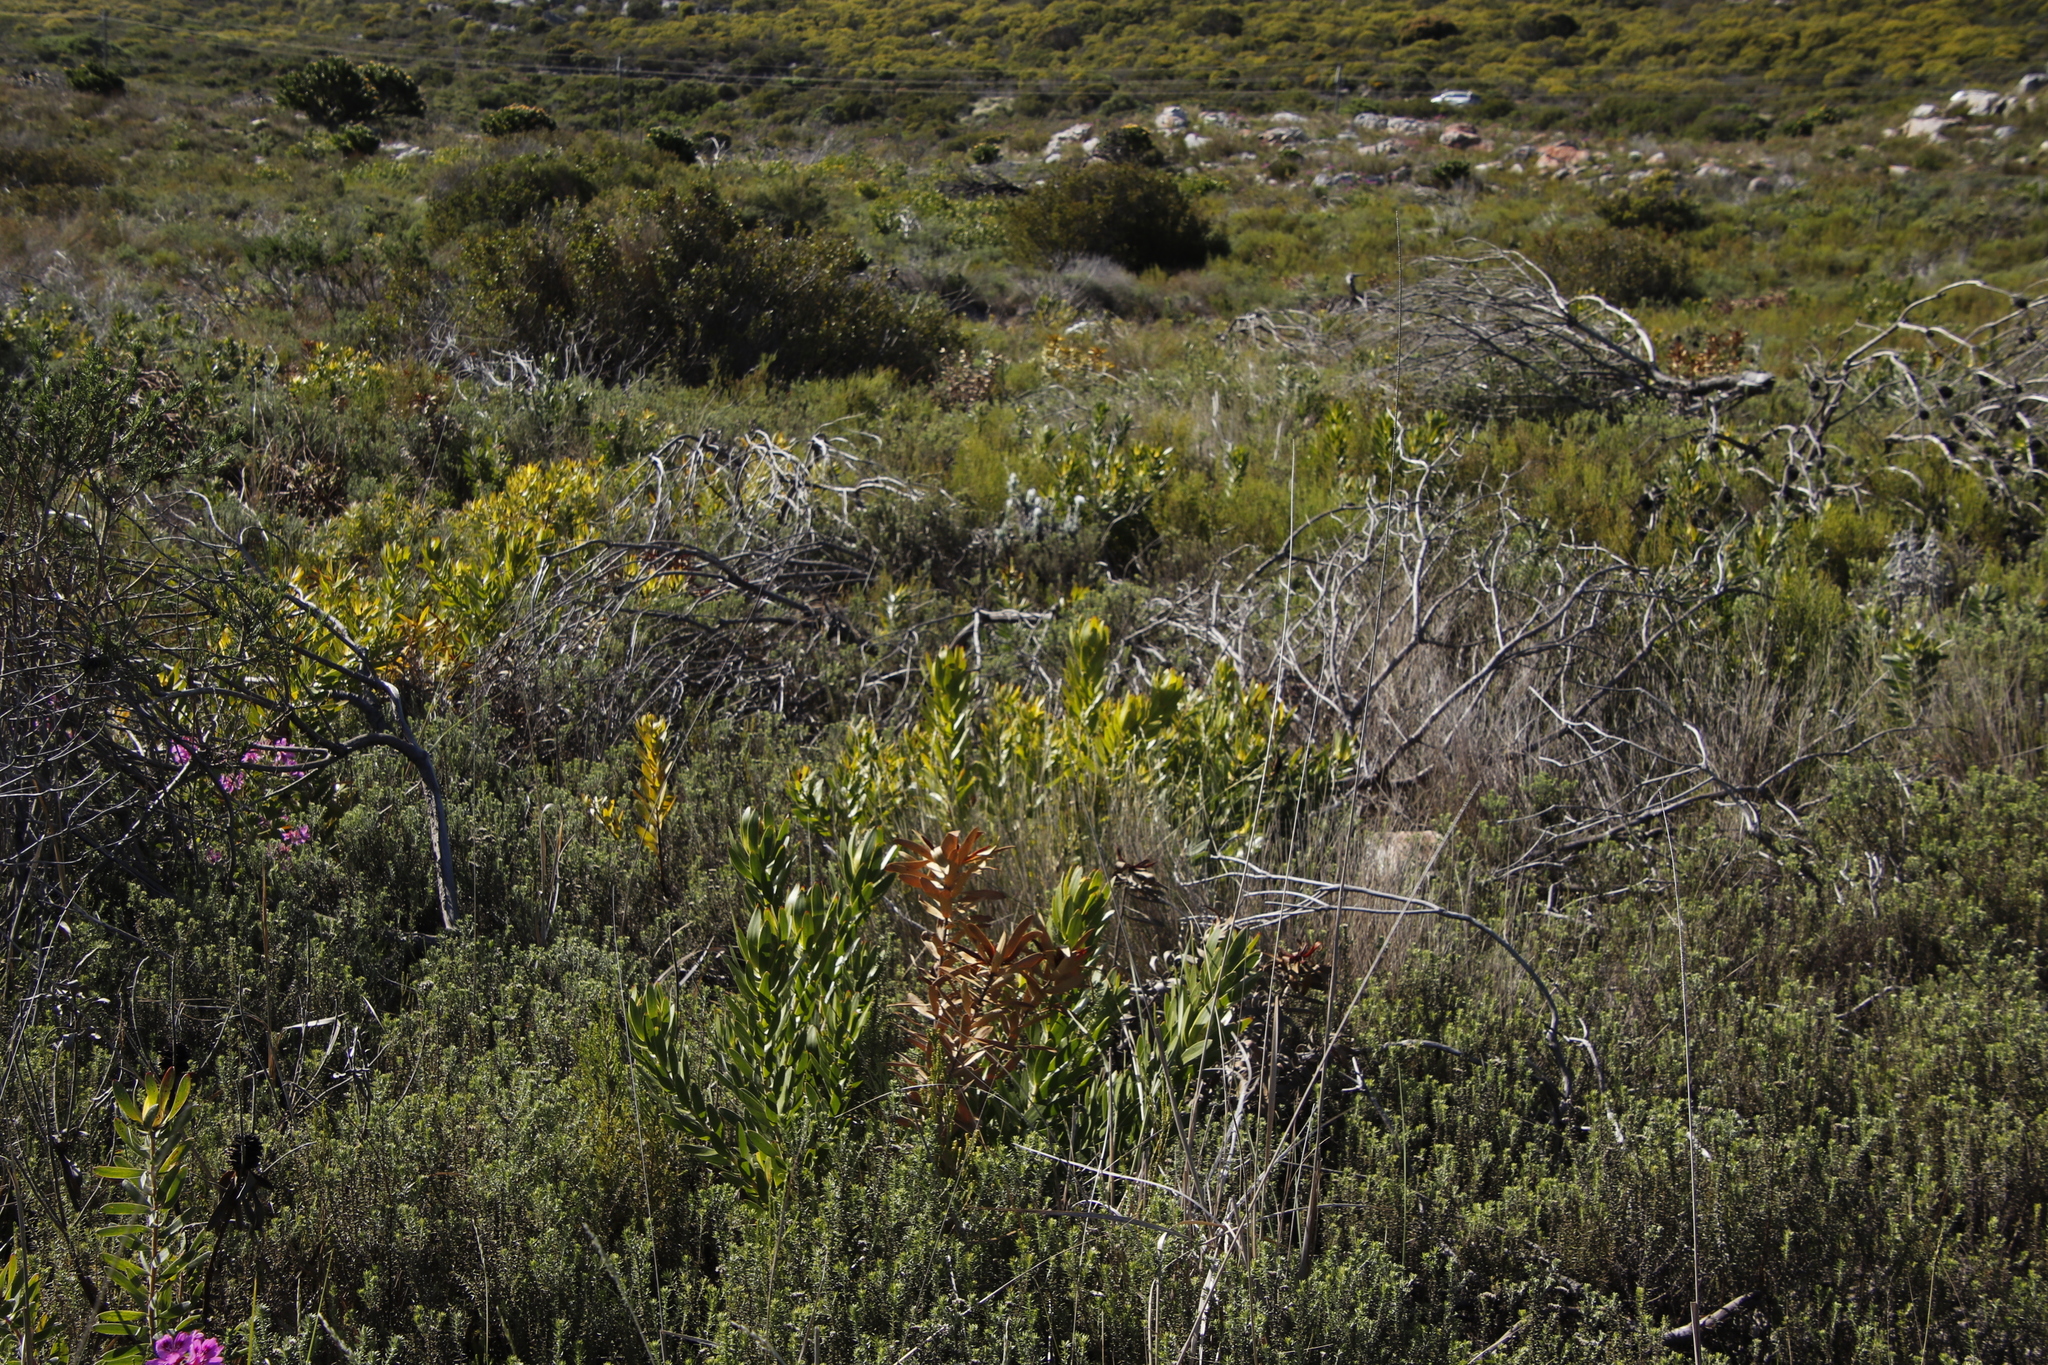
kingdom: Plantae
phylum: Tracheophyta
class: Magnoliopsida
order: Proteales
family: Proteaceae
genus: Leucadendron
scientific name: Leucadendron laureolum
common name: Golden sunshinebush
